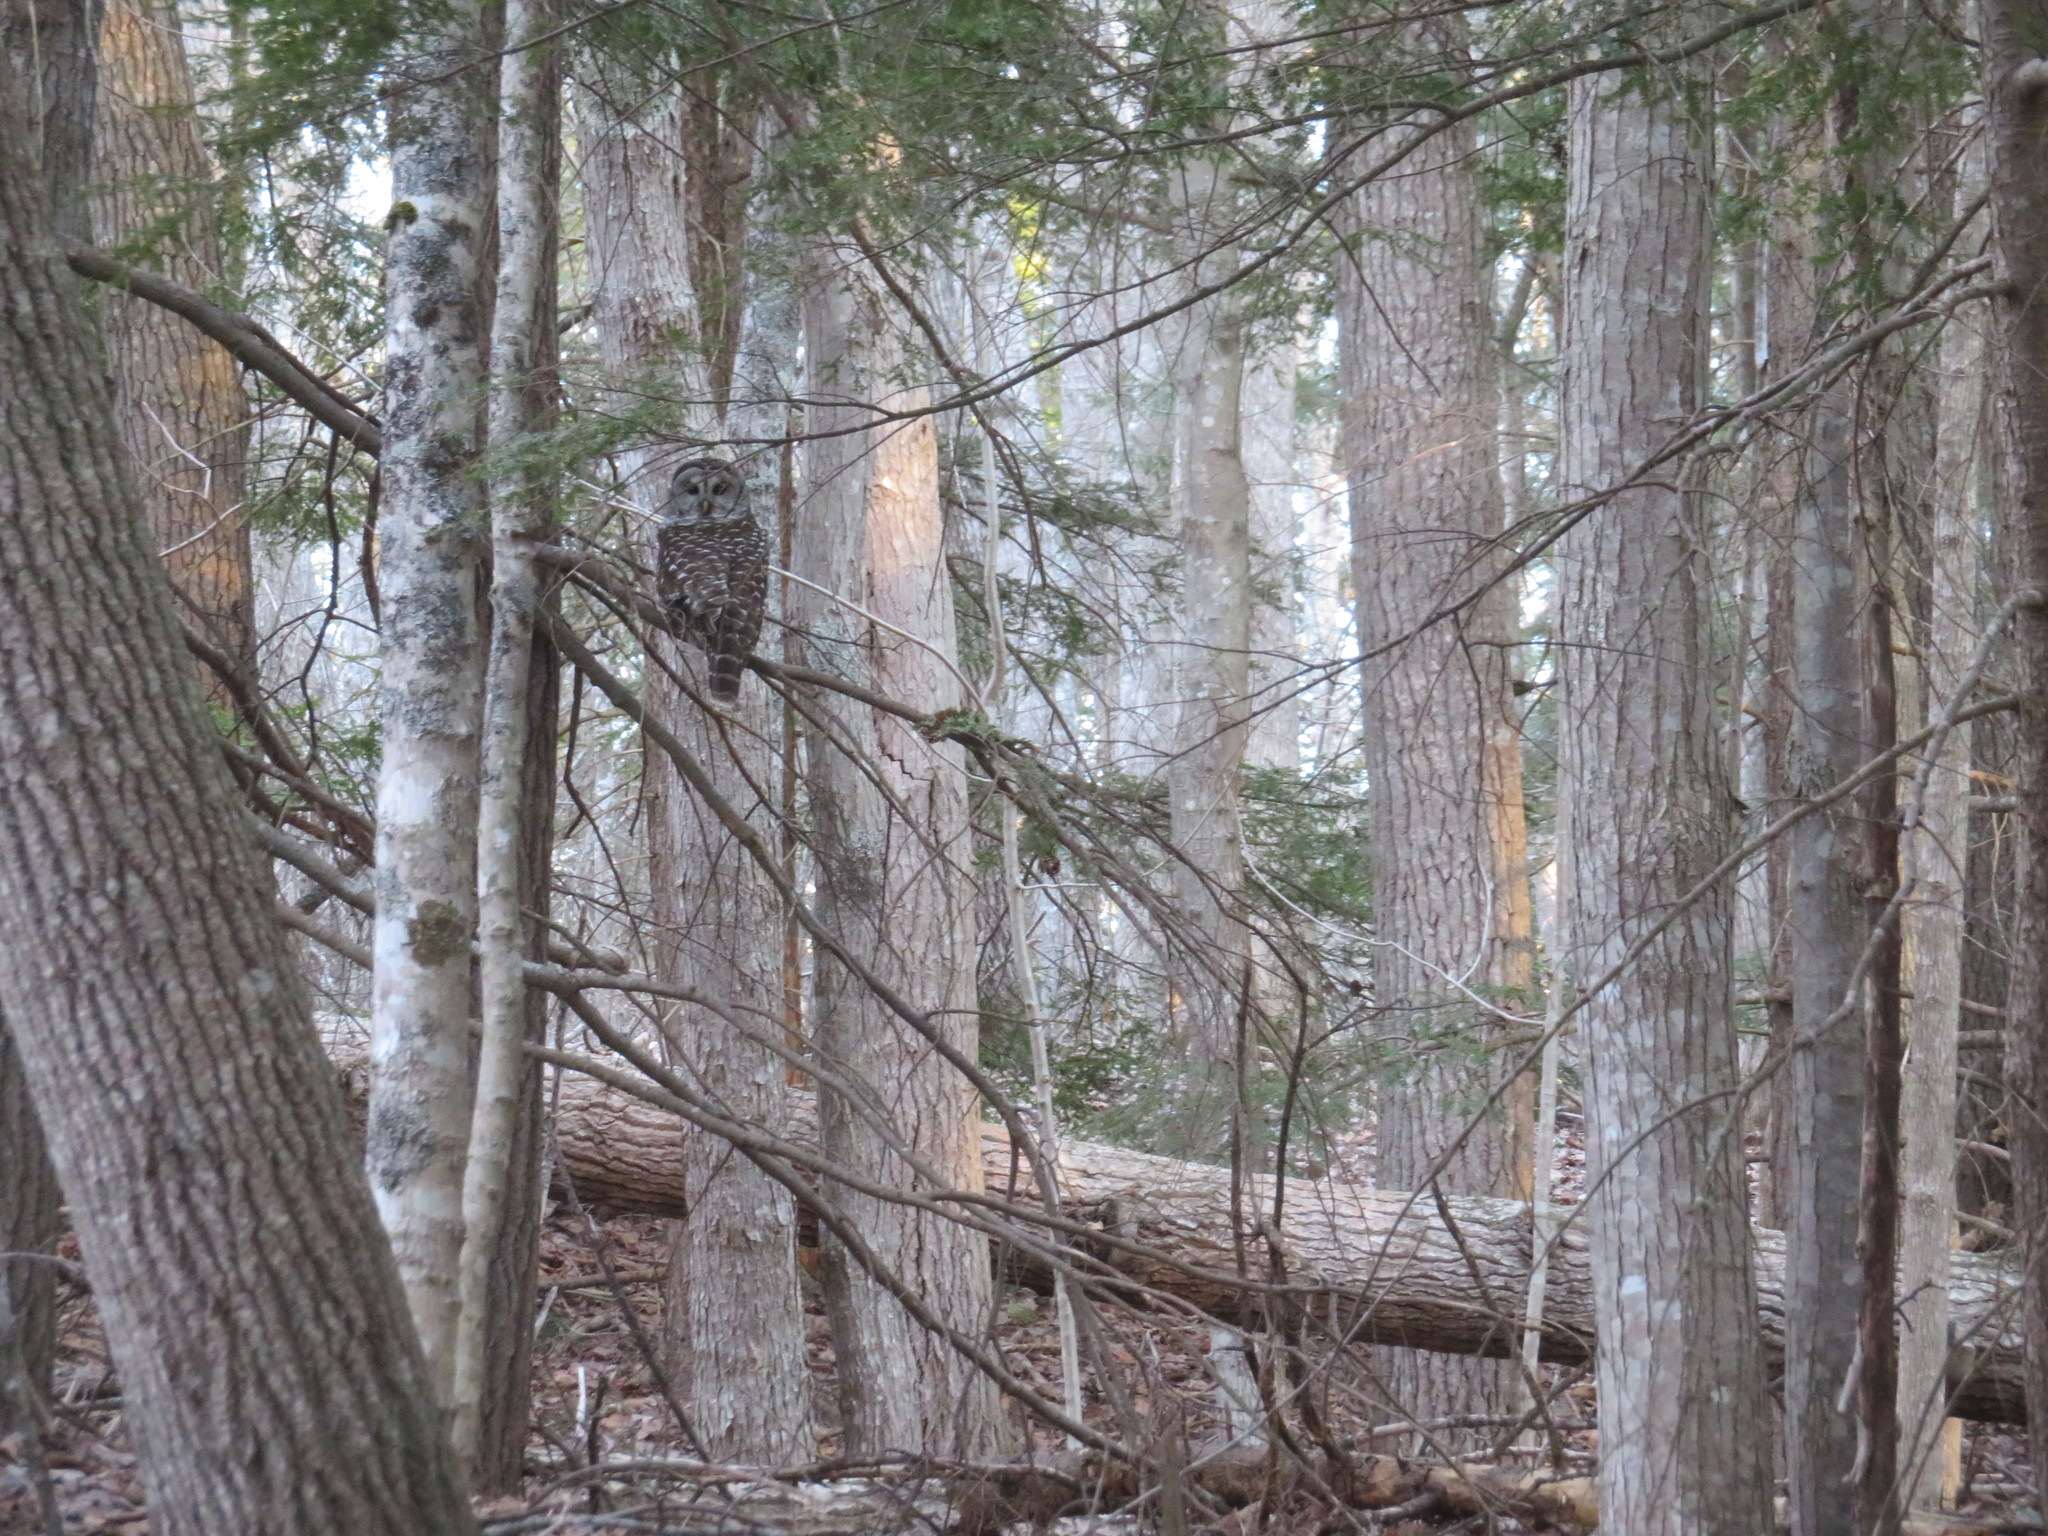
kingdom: Animalia
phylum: Chordata
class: Aves
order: Strigiformes
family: Strigidae
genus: Strix
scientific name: Strix varia
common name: Barred owl
